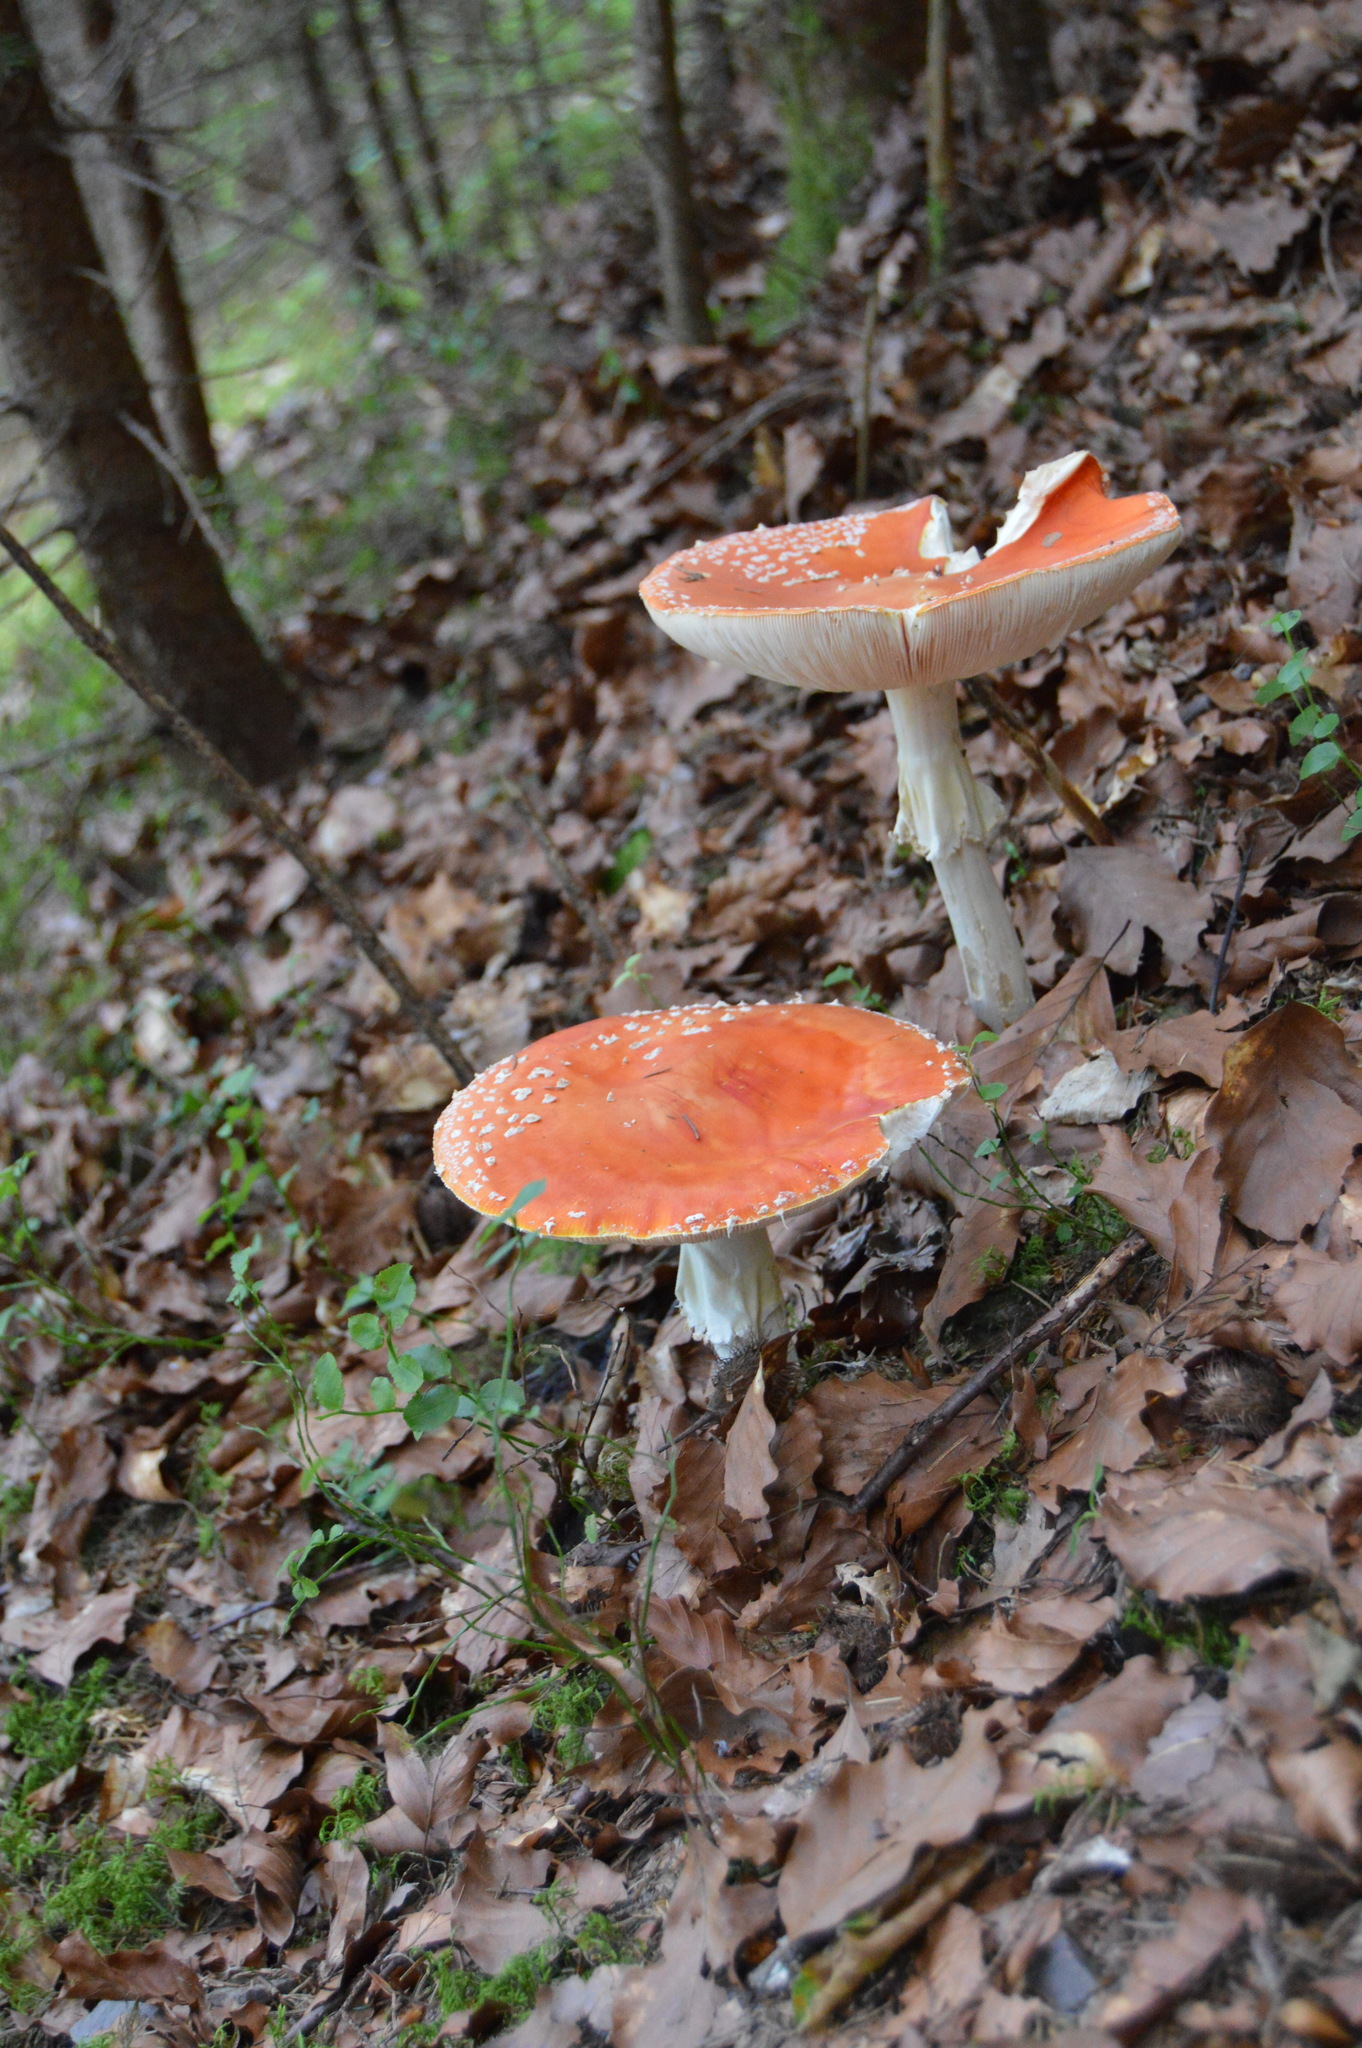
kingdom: Fungi
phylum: Basidiomycota
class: Agaricomycetes
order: Agaricales
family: Amanitaceae
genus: Amanita
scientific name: Amanita muscaria
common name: Fly agaric
